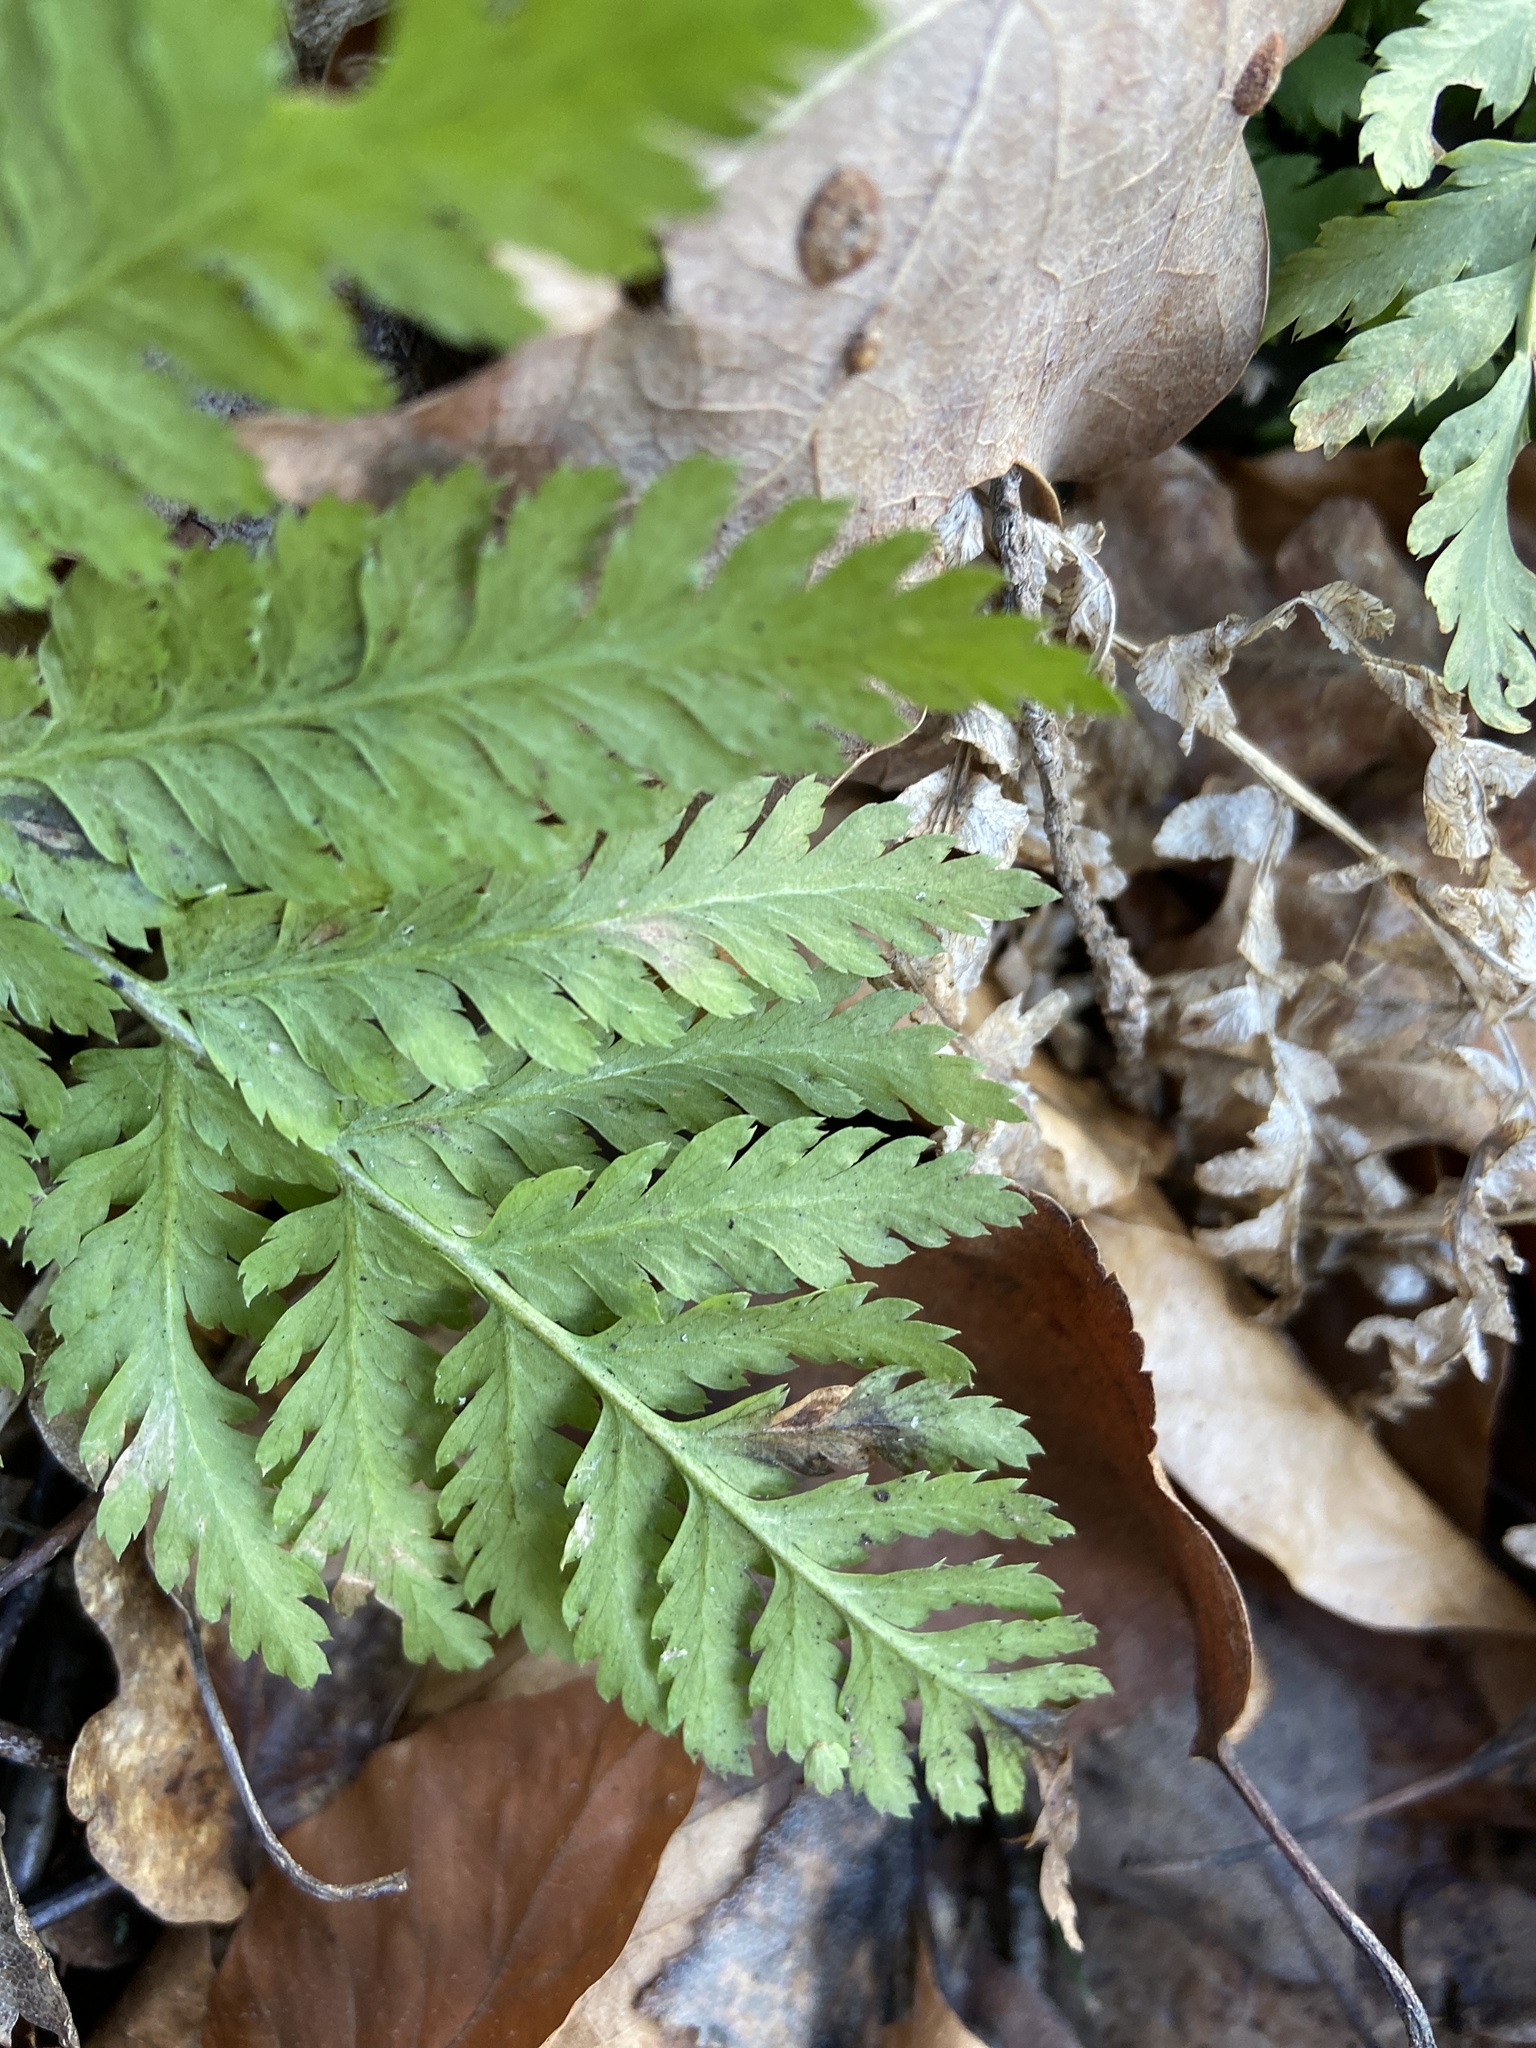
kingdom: Plantae
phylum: Tracheophyta
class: Polypodiopsida
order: Polypodiales
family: Dryopteridaceae
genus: Dryopteris
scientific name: Dryopteris carthusiana
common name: Narrow buckler-fern
